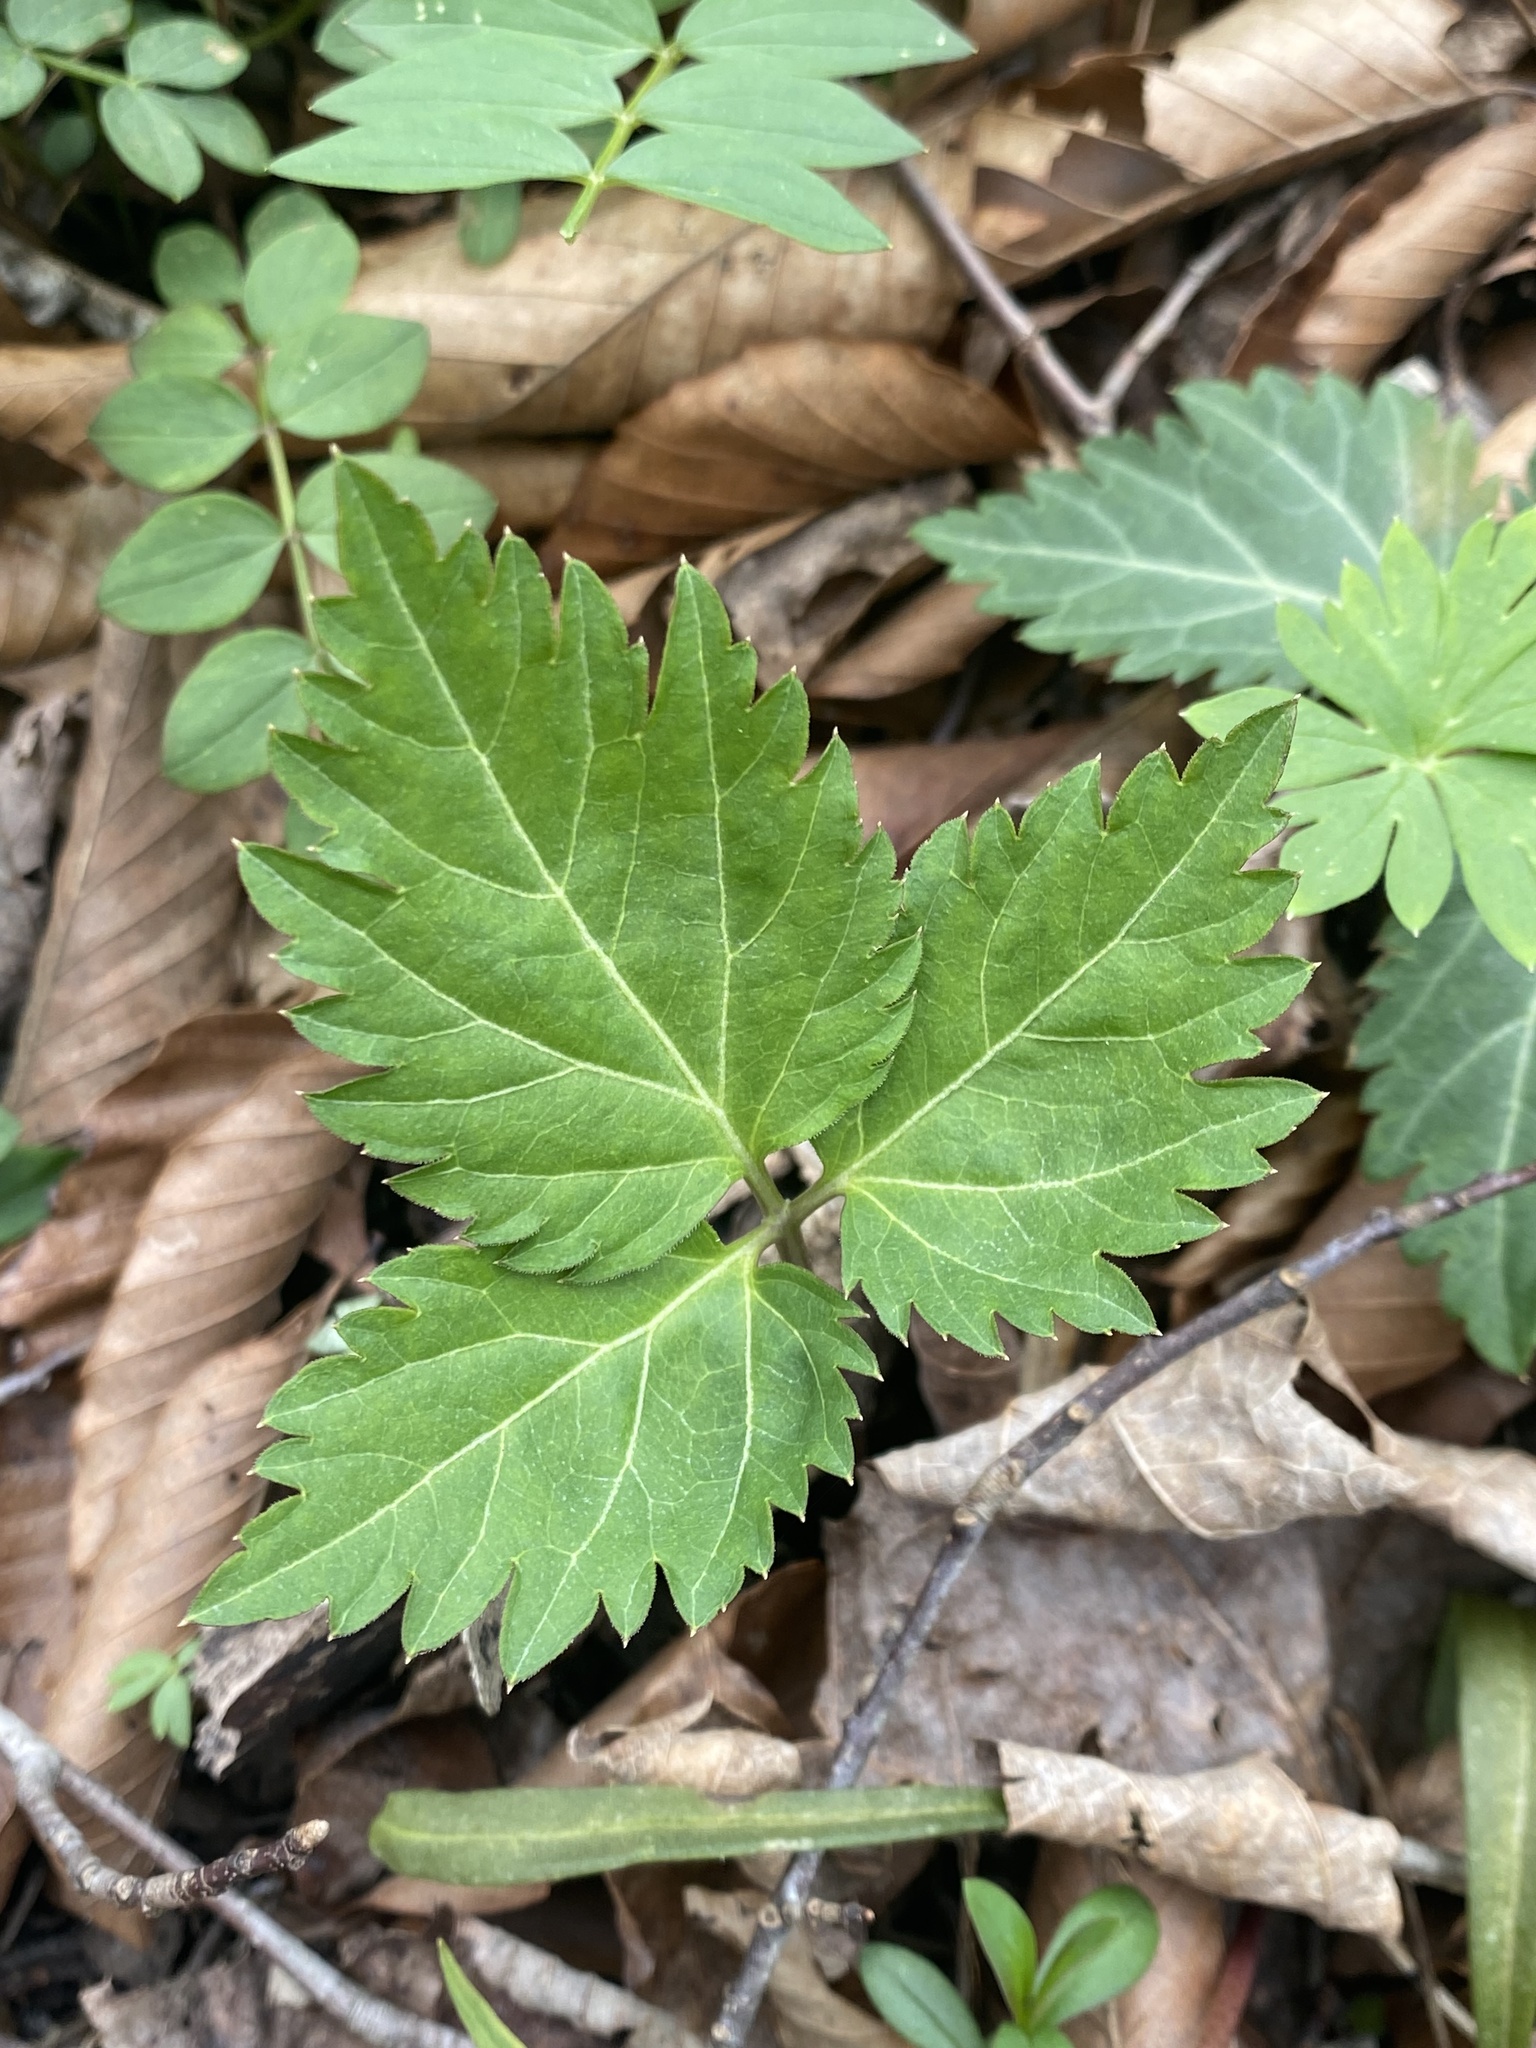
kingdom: Plantae
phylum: Tracheophyta
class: Magnoliopsida
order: Brassicales
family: Brassicaceae
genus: Cardamine
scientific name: Cardamine diphylla
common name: Broad-leaved toothwort
